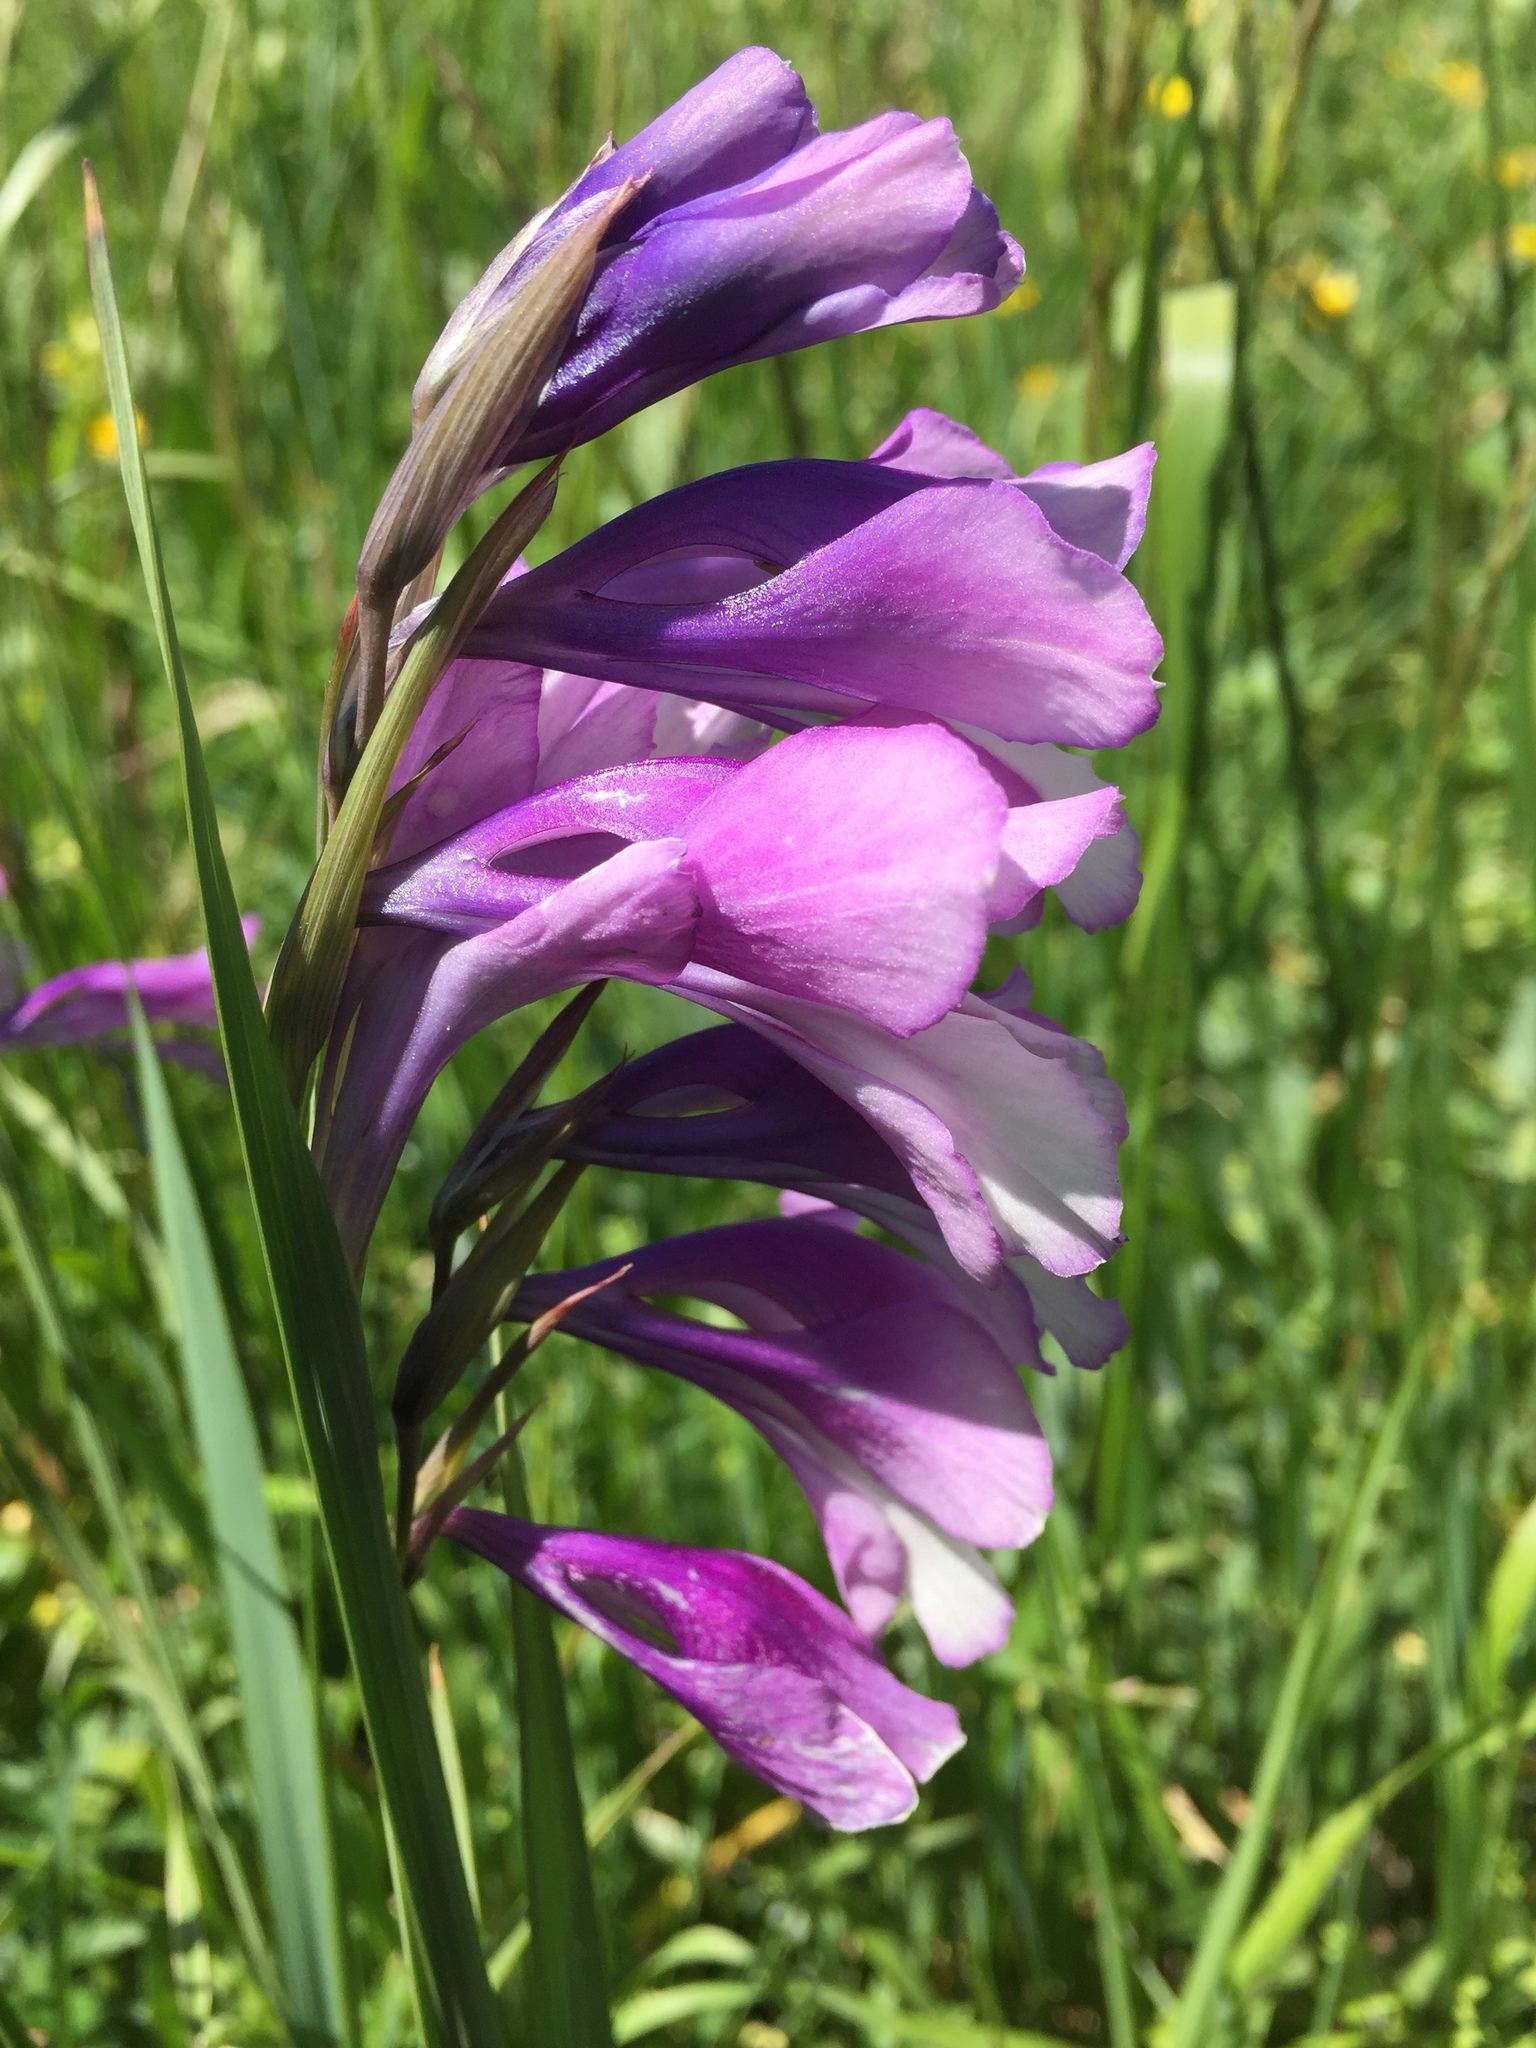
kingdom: Plantae
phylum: Tracheophyta
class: Liliopsida
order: Asparagales
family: Iridaceae
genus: Gladiolus
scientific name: Gladiolus italicus
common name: Field gladiolus
